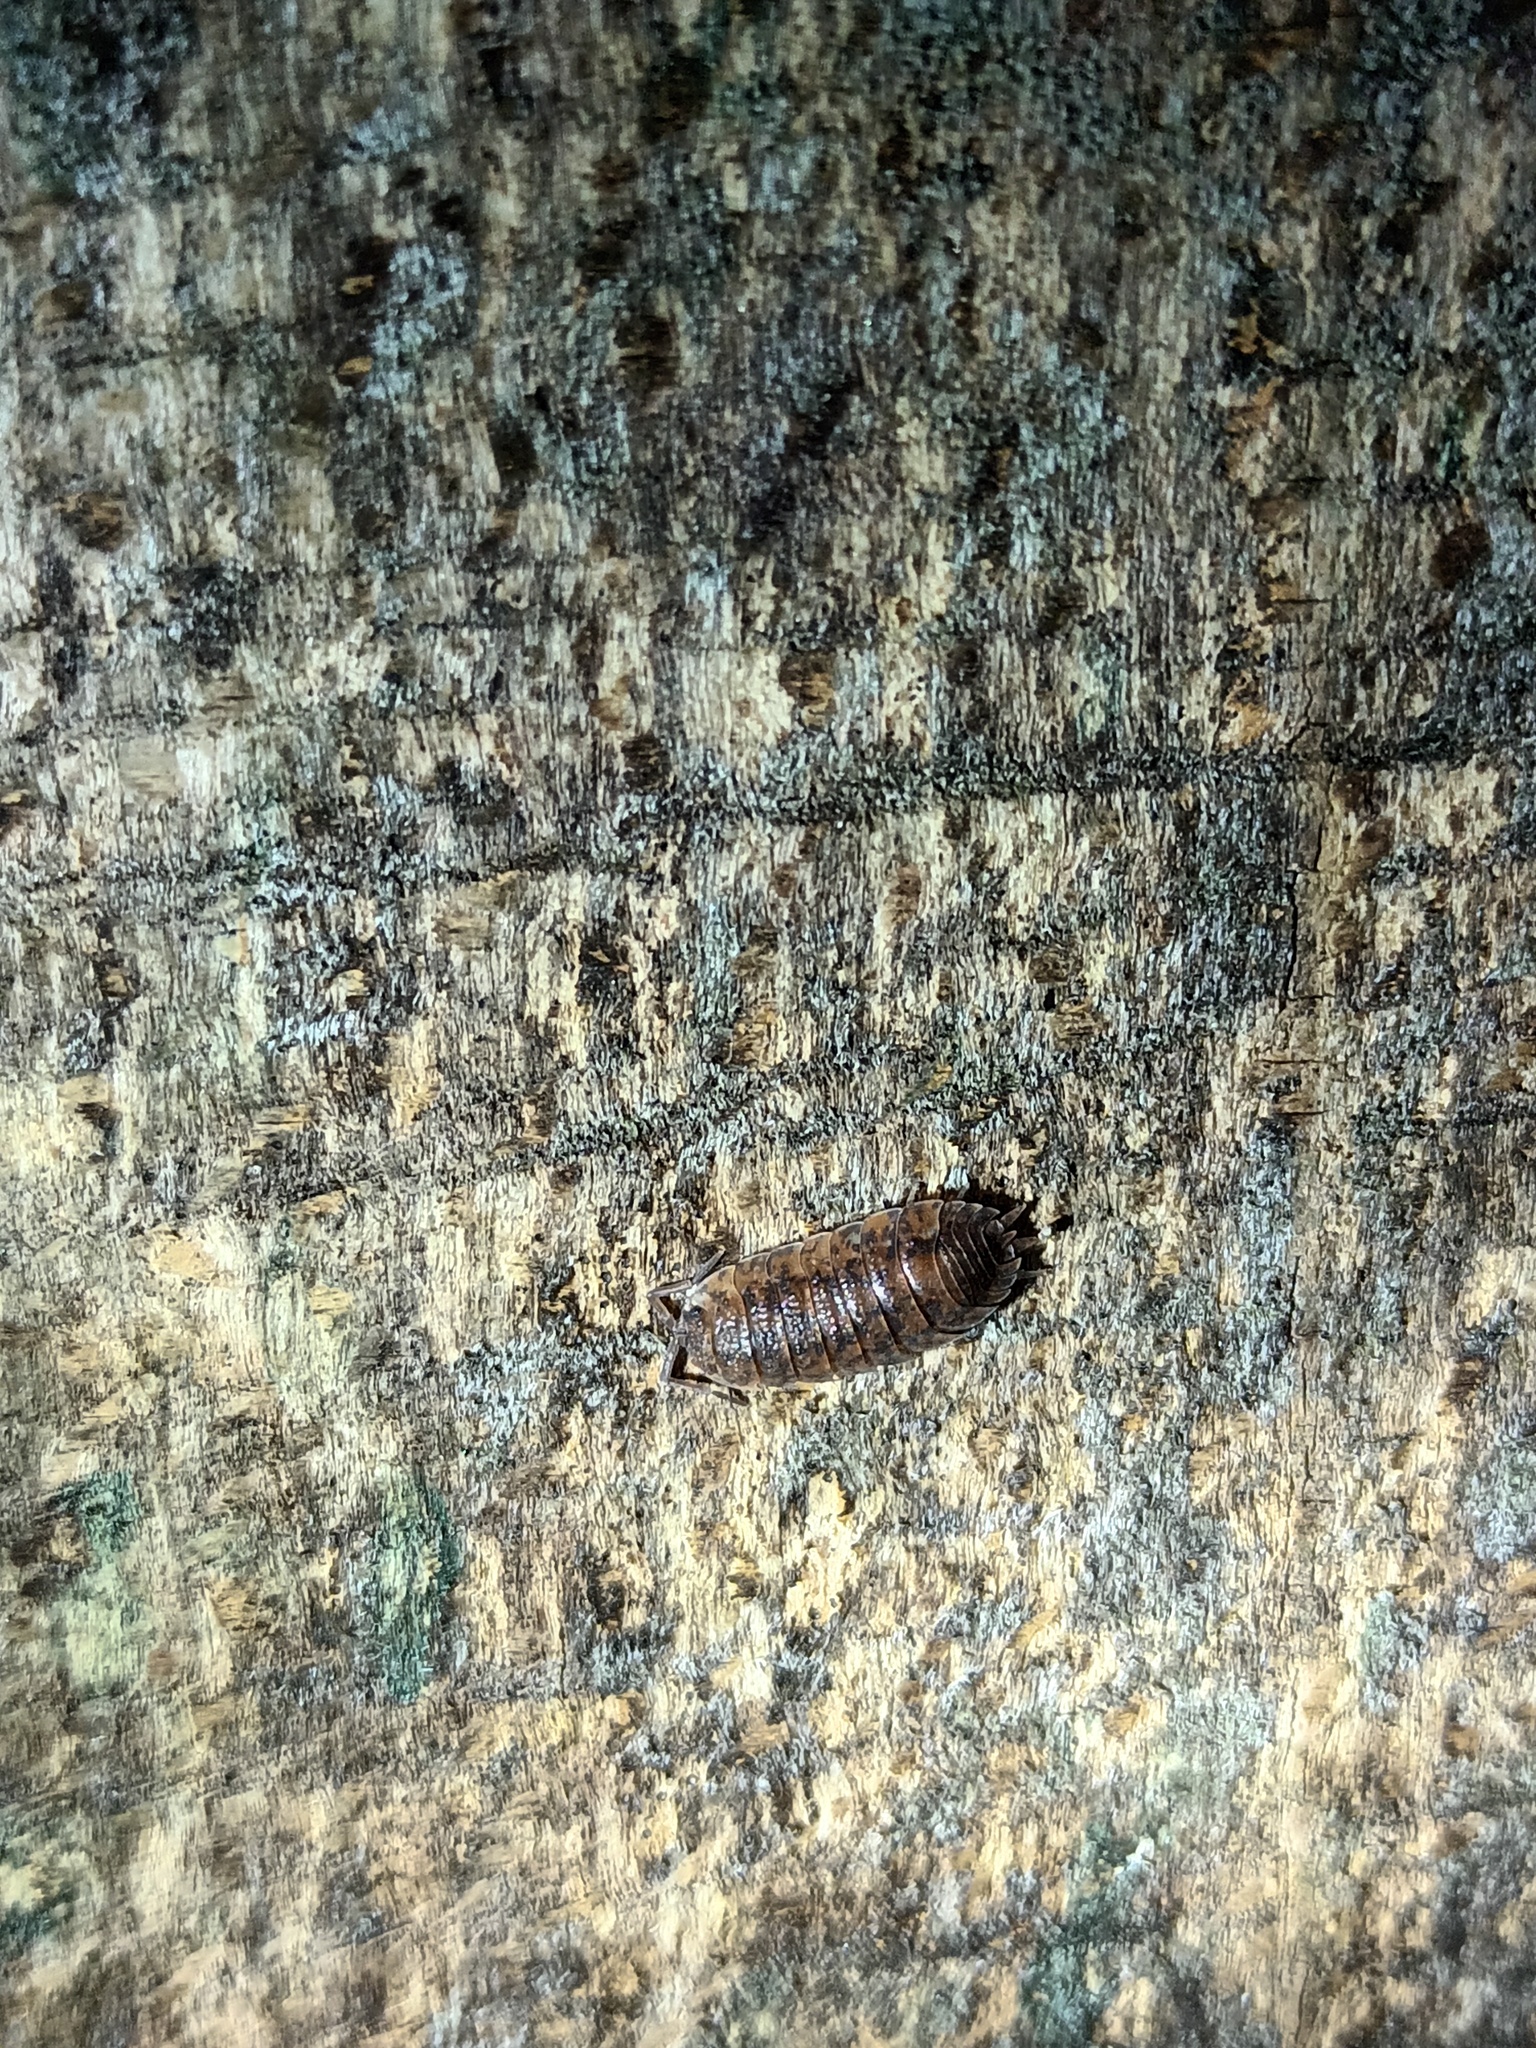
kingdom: Animalia
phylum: Arthropoda
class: Malacostraca
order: Isopoda
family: Porcellionidae
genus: Porcellio
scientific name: Porcellio scaber
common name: Common rough woodlouse
